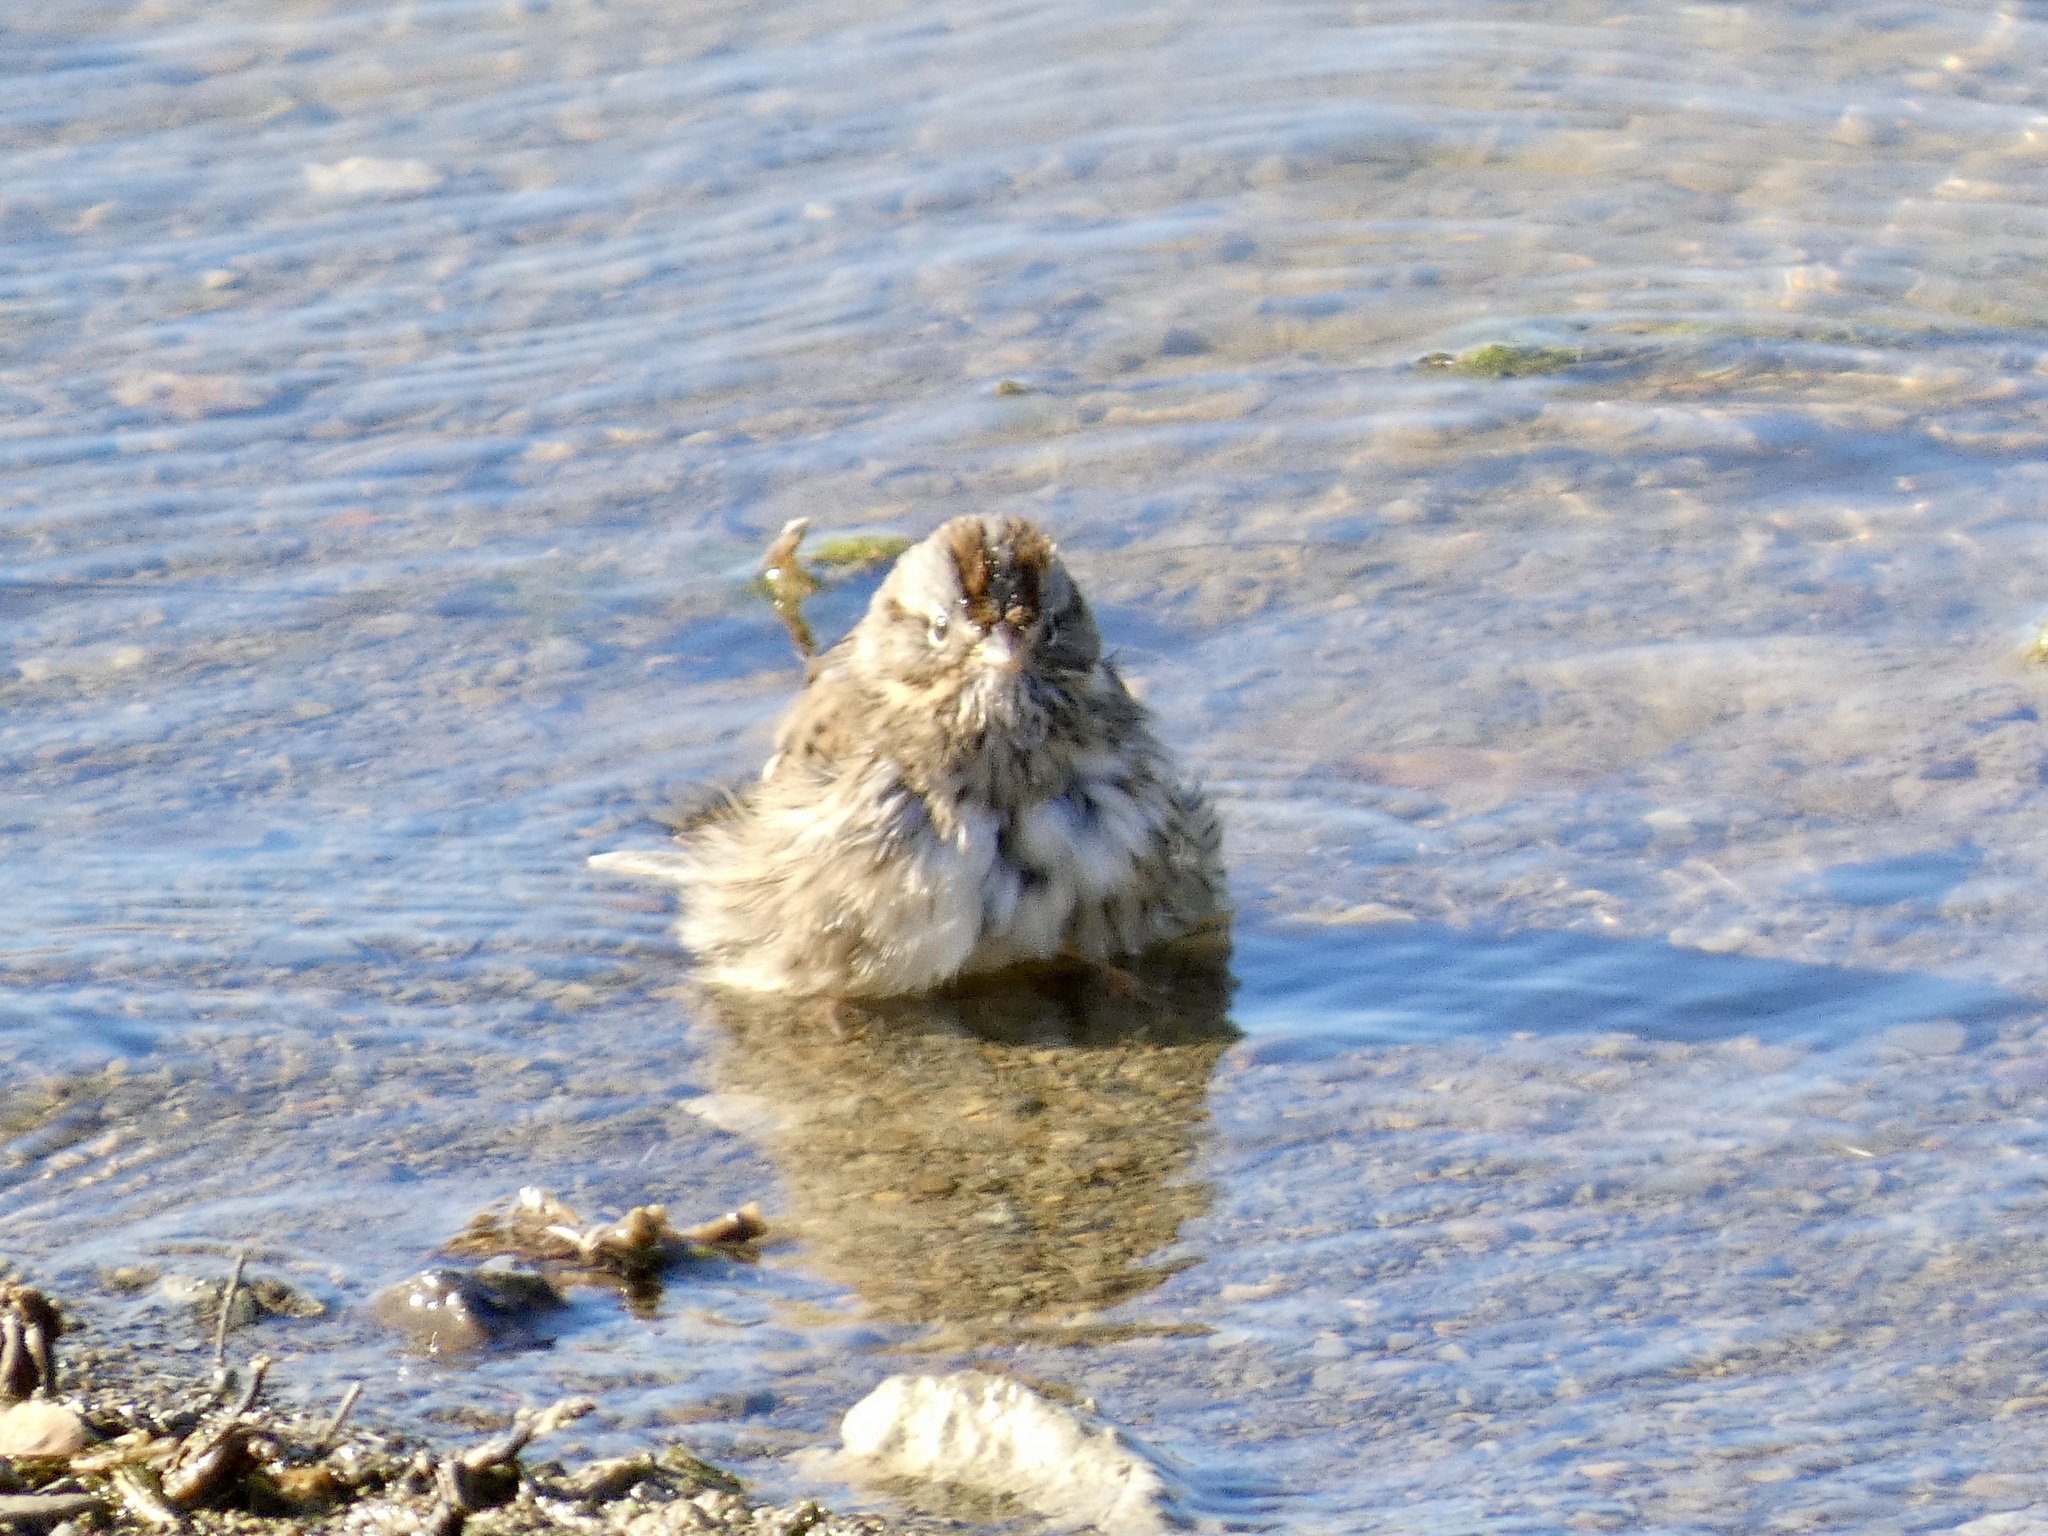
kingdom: Animalia
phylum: Chordata
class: Aves
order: Passeriformes
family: Passerellidae
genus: Melospiza
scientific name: Melospiza lincolnii
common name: Lincoln's sparrow
